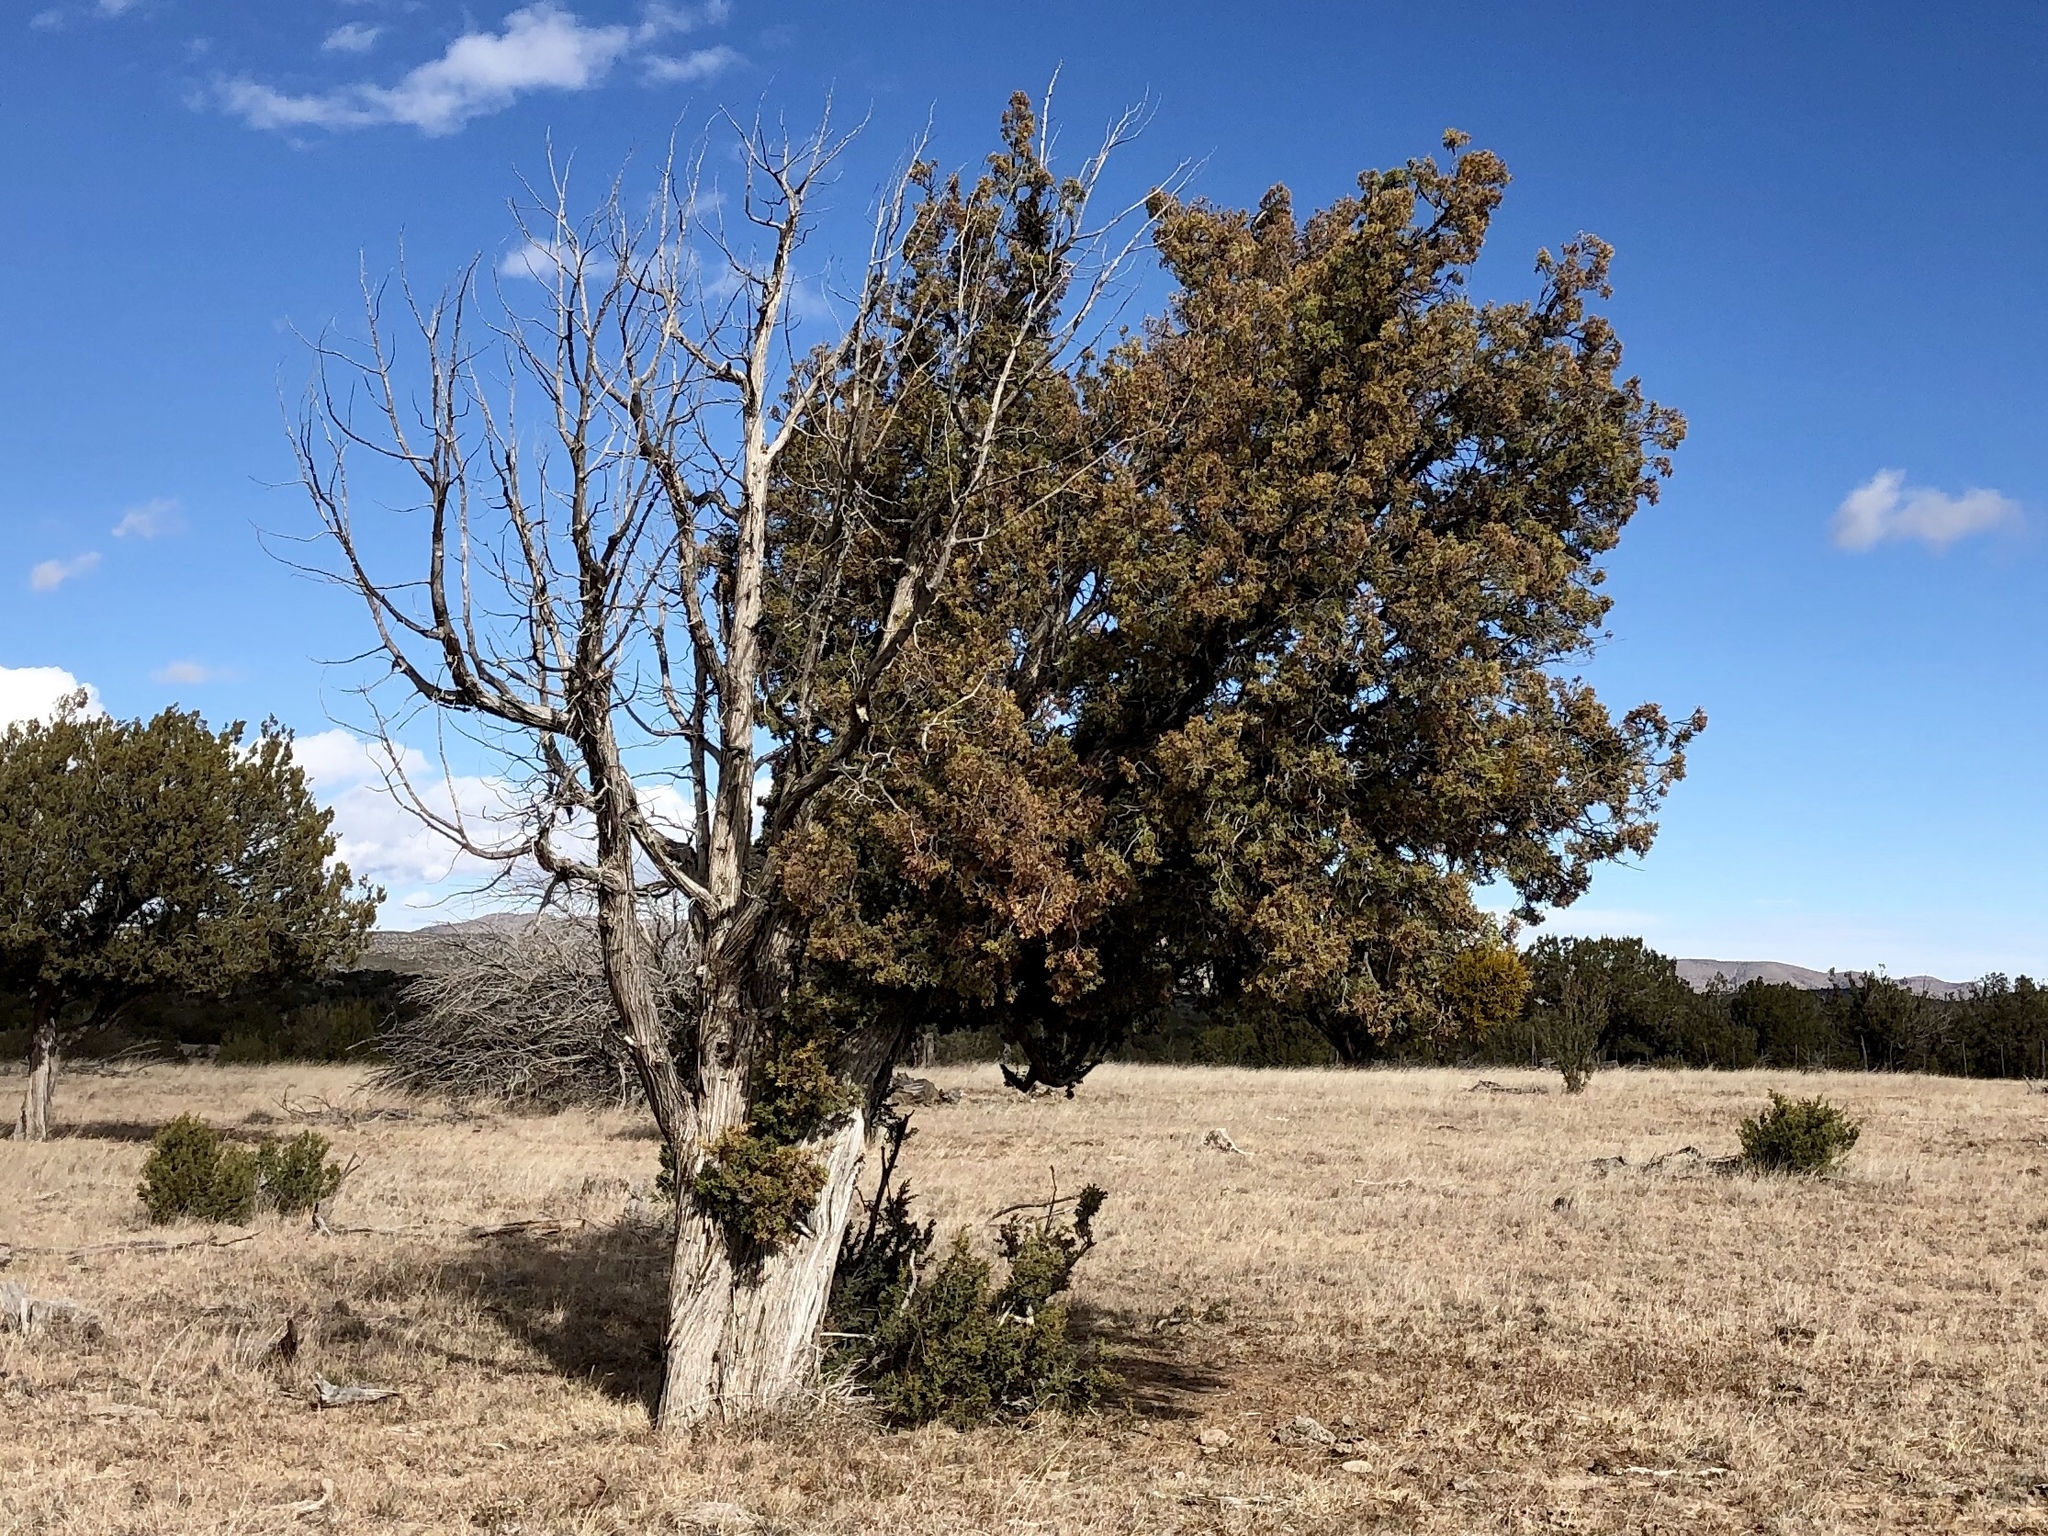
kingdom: Plantae
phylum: Tracheophyta
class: Pinopsida
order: Pinales
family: Cupressaceae
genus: Juniperus
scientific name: Juniperus monosperma
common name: One-seed juniper
